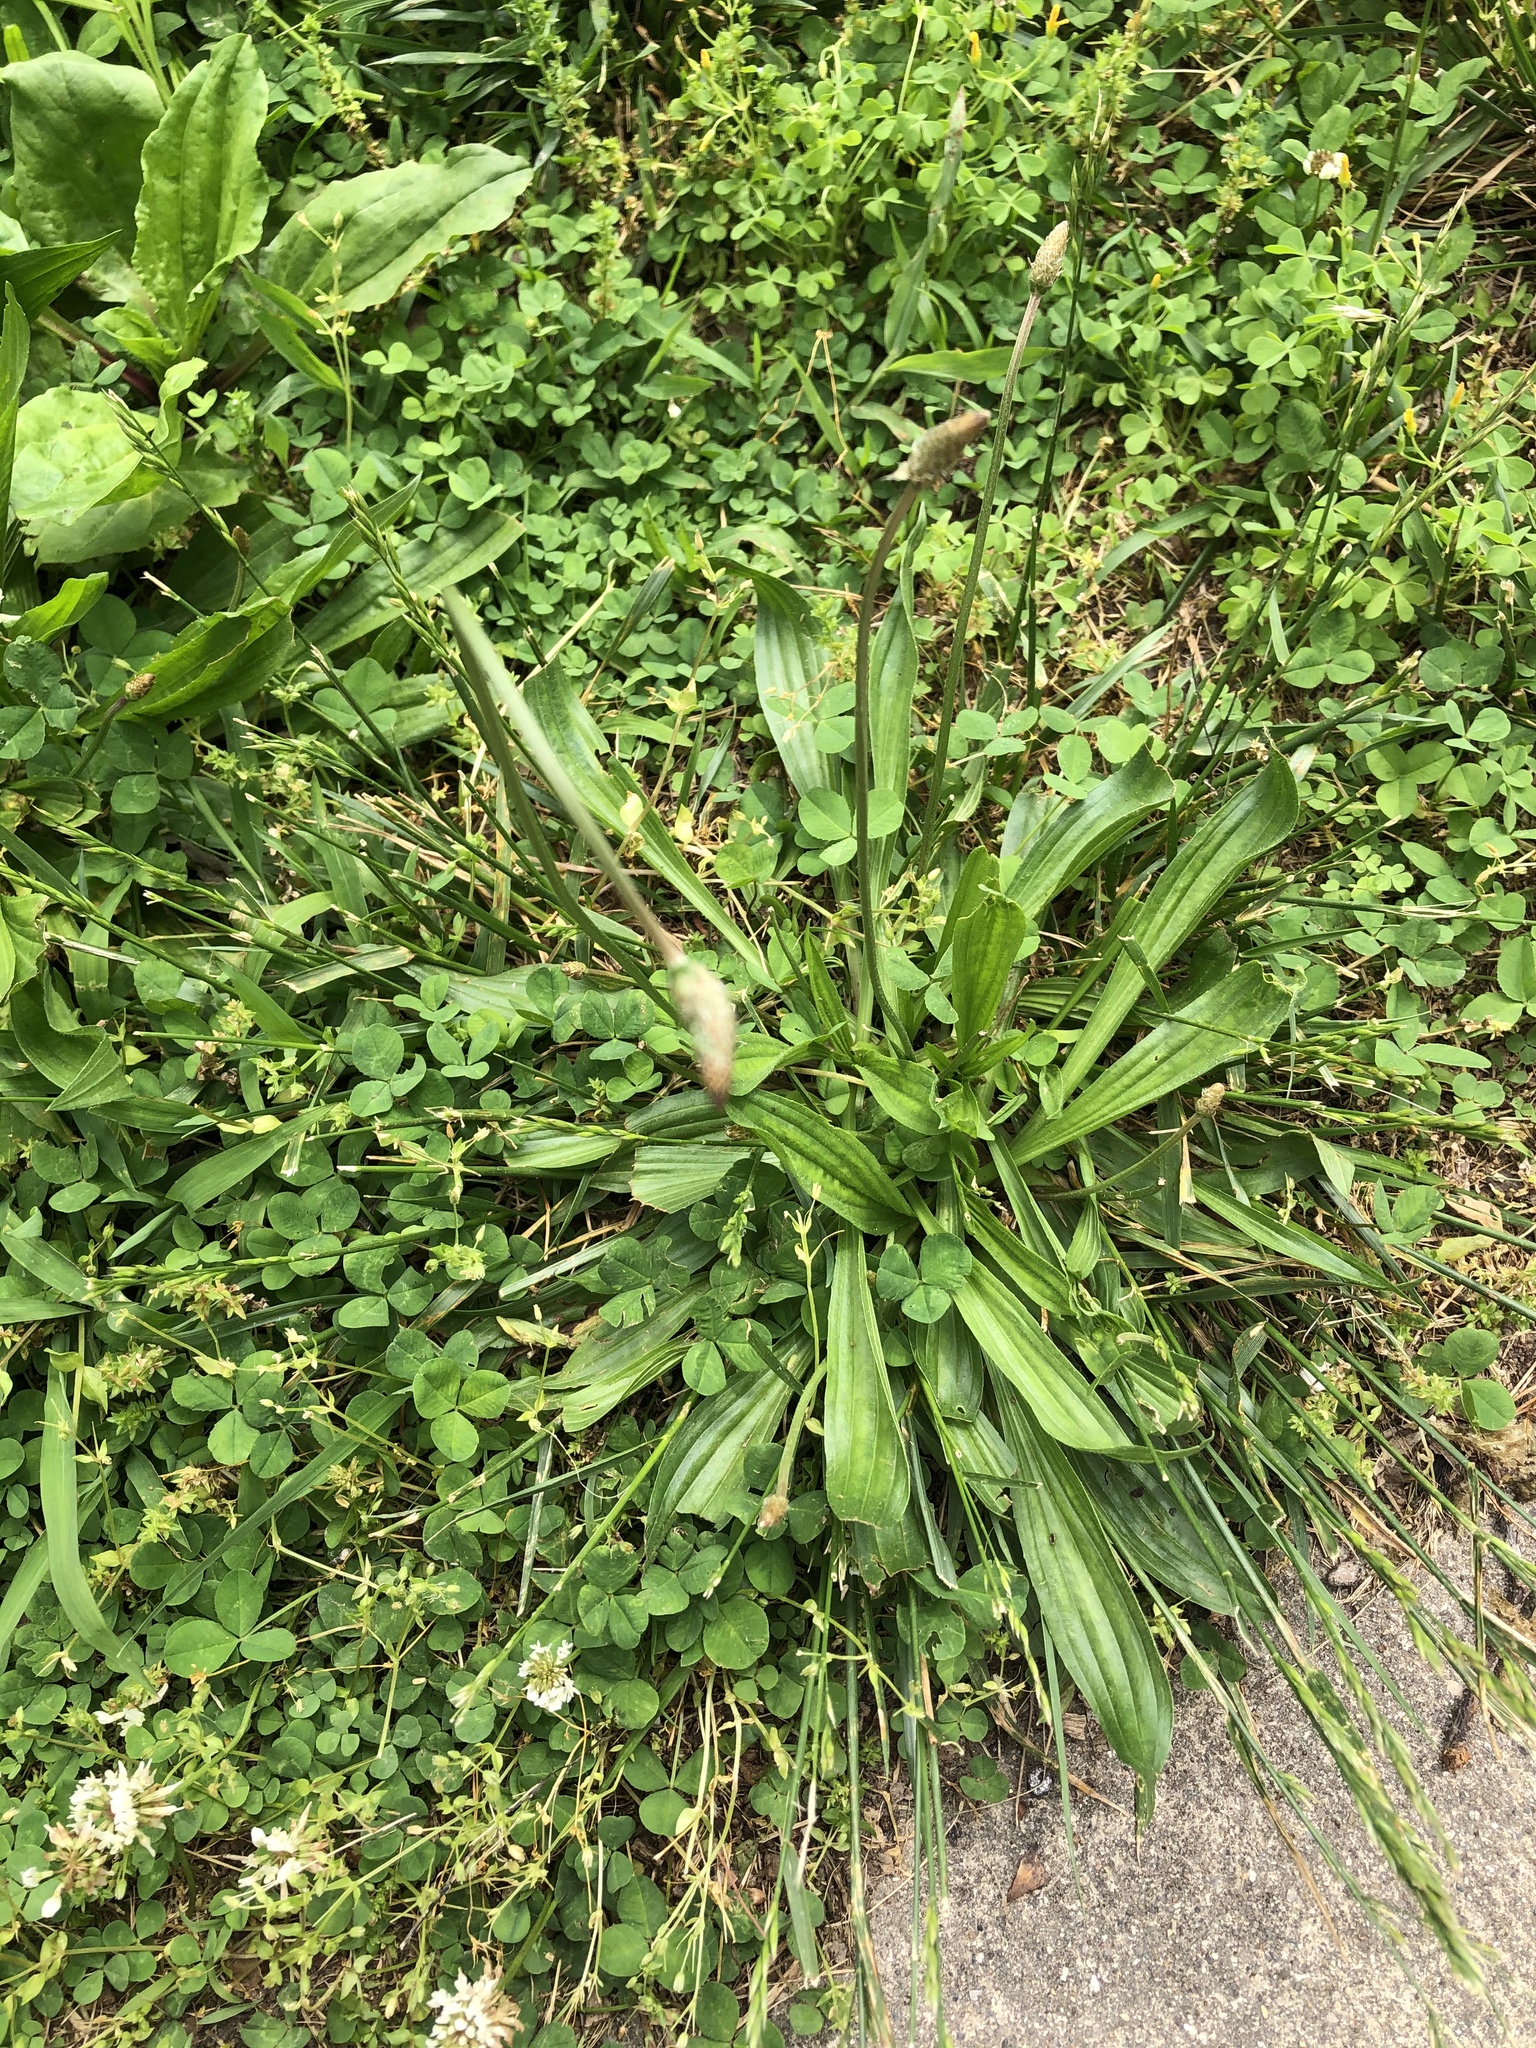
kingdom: Plantae
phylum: Tracheophyta
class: Magnoliopsida
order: Lamiales
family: Plantaginaceae
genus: Plantago
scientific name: Plantago lanceolata
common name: Ribwort plantain
